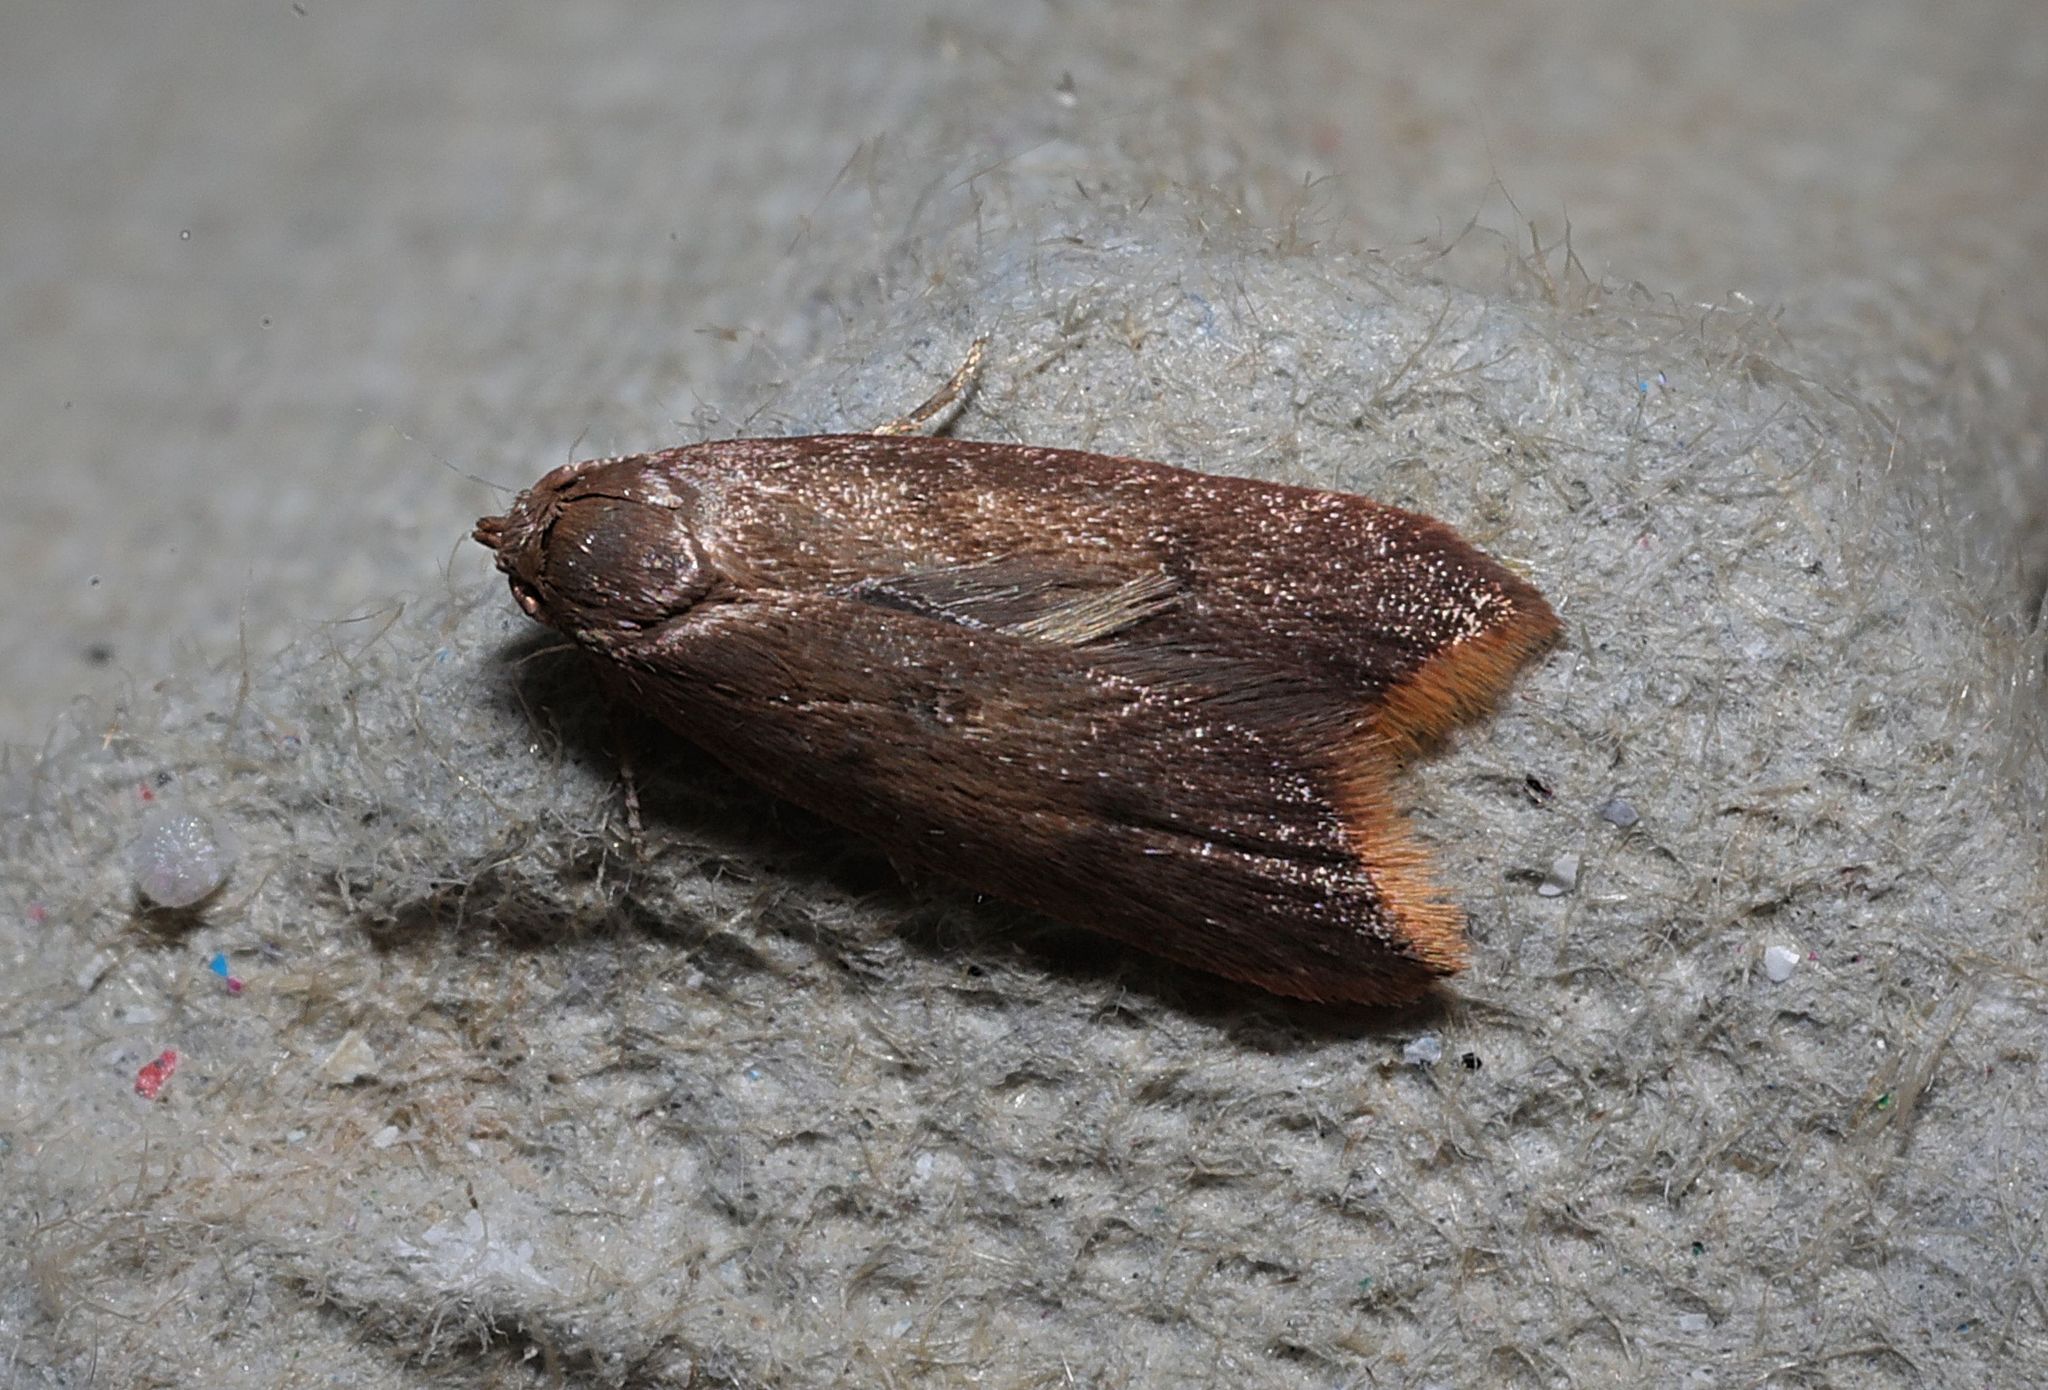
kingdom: Animalia
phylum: Arthropoda
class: Insecta
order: Lepidoptera
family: Oecophoridae
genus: Tachystola
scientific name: Tachystola acroxantha
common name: Ruddy streak
